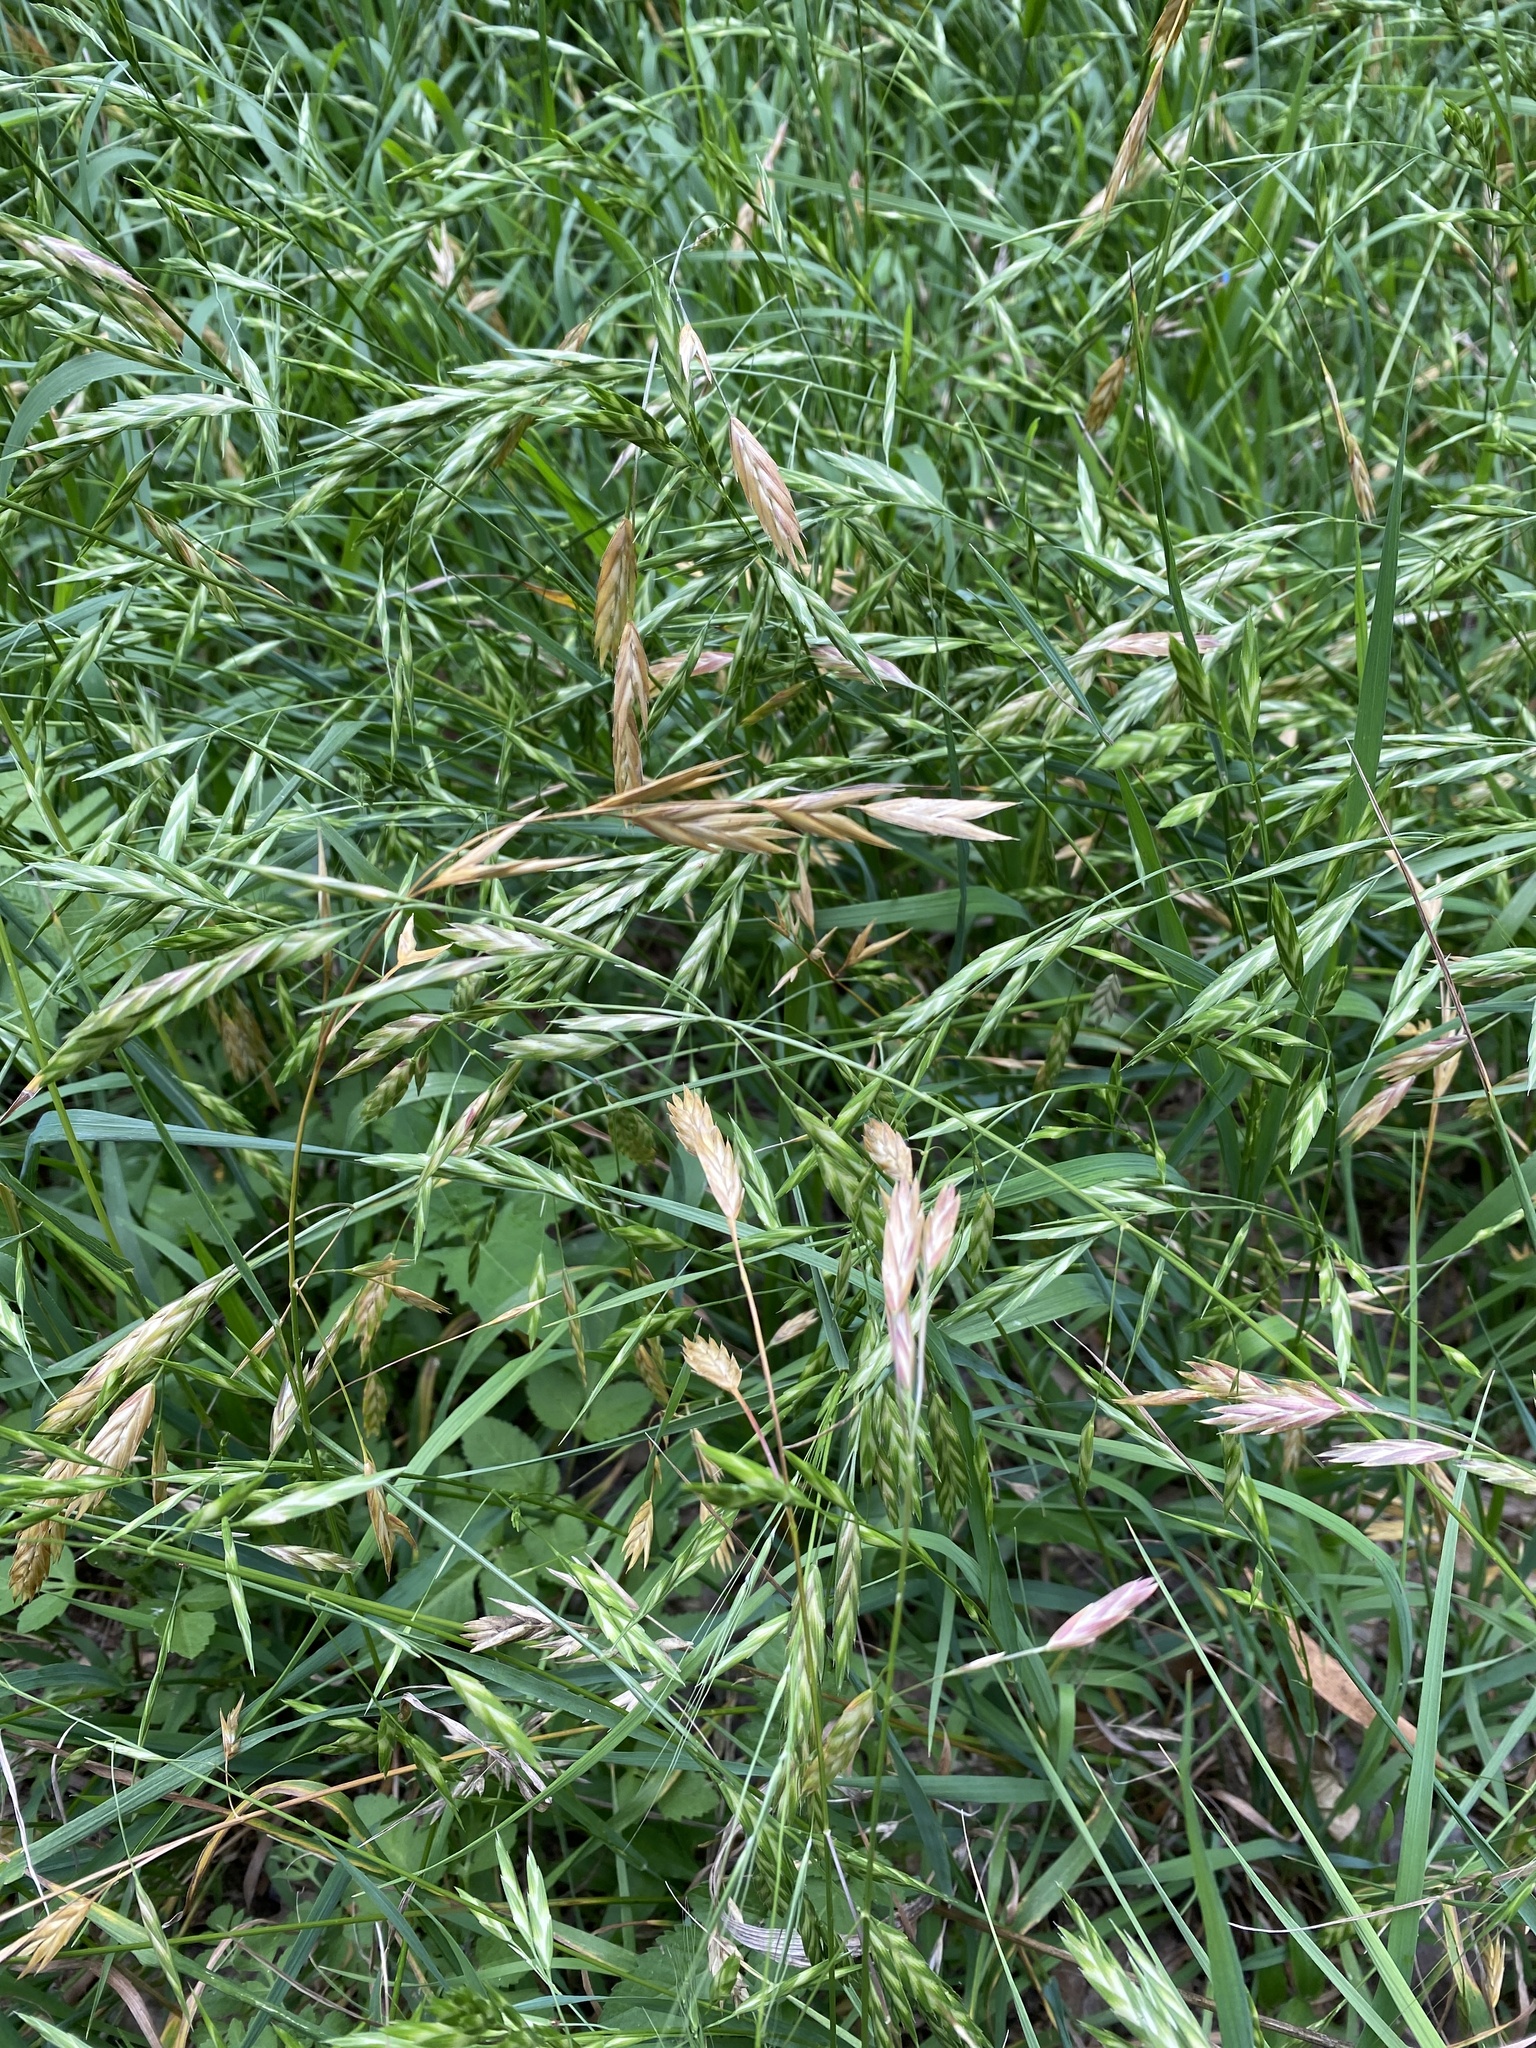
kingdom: Plantae
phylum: Tracheophyta
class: Liliopsida
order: Poales
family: Poaceae
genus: Bromus
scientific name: Bromus catharticus
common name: Rescuegrass
